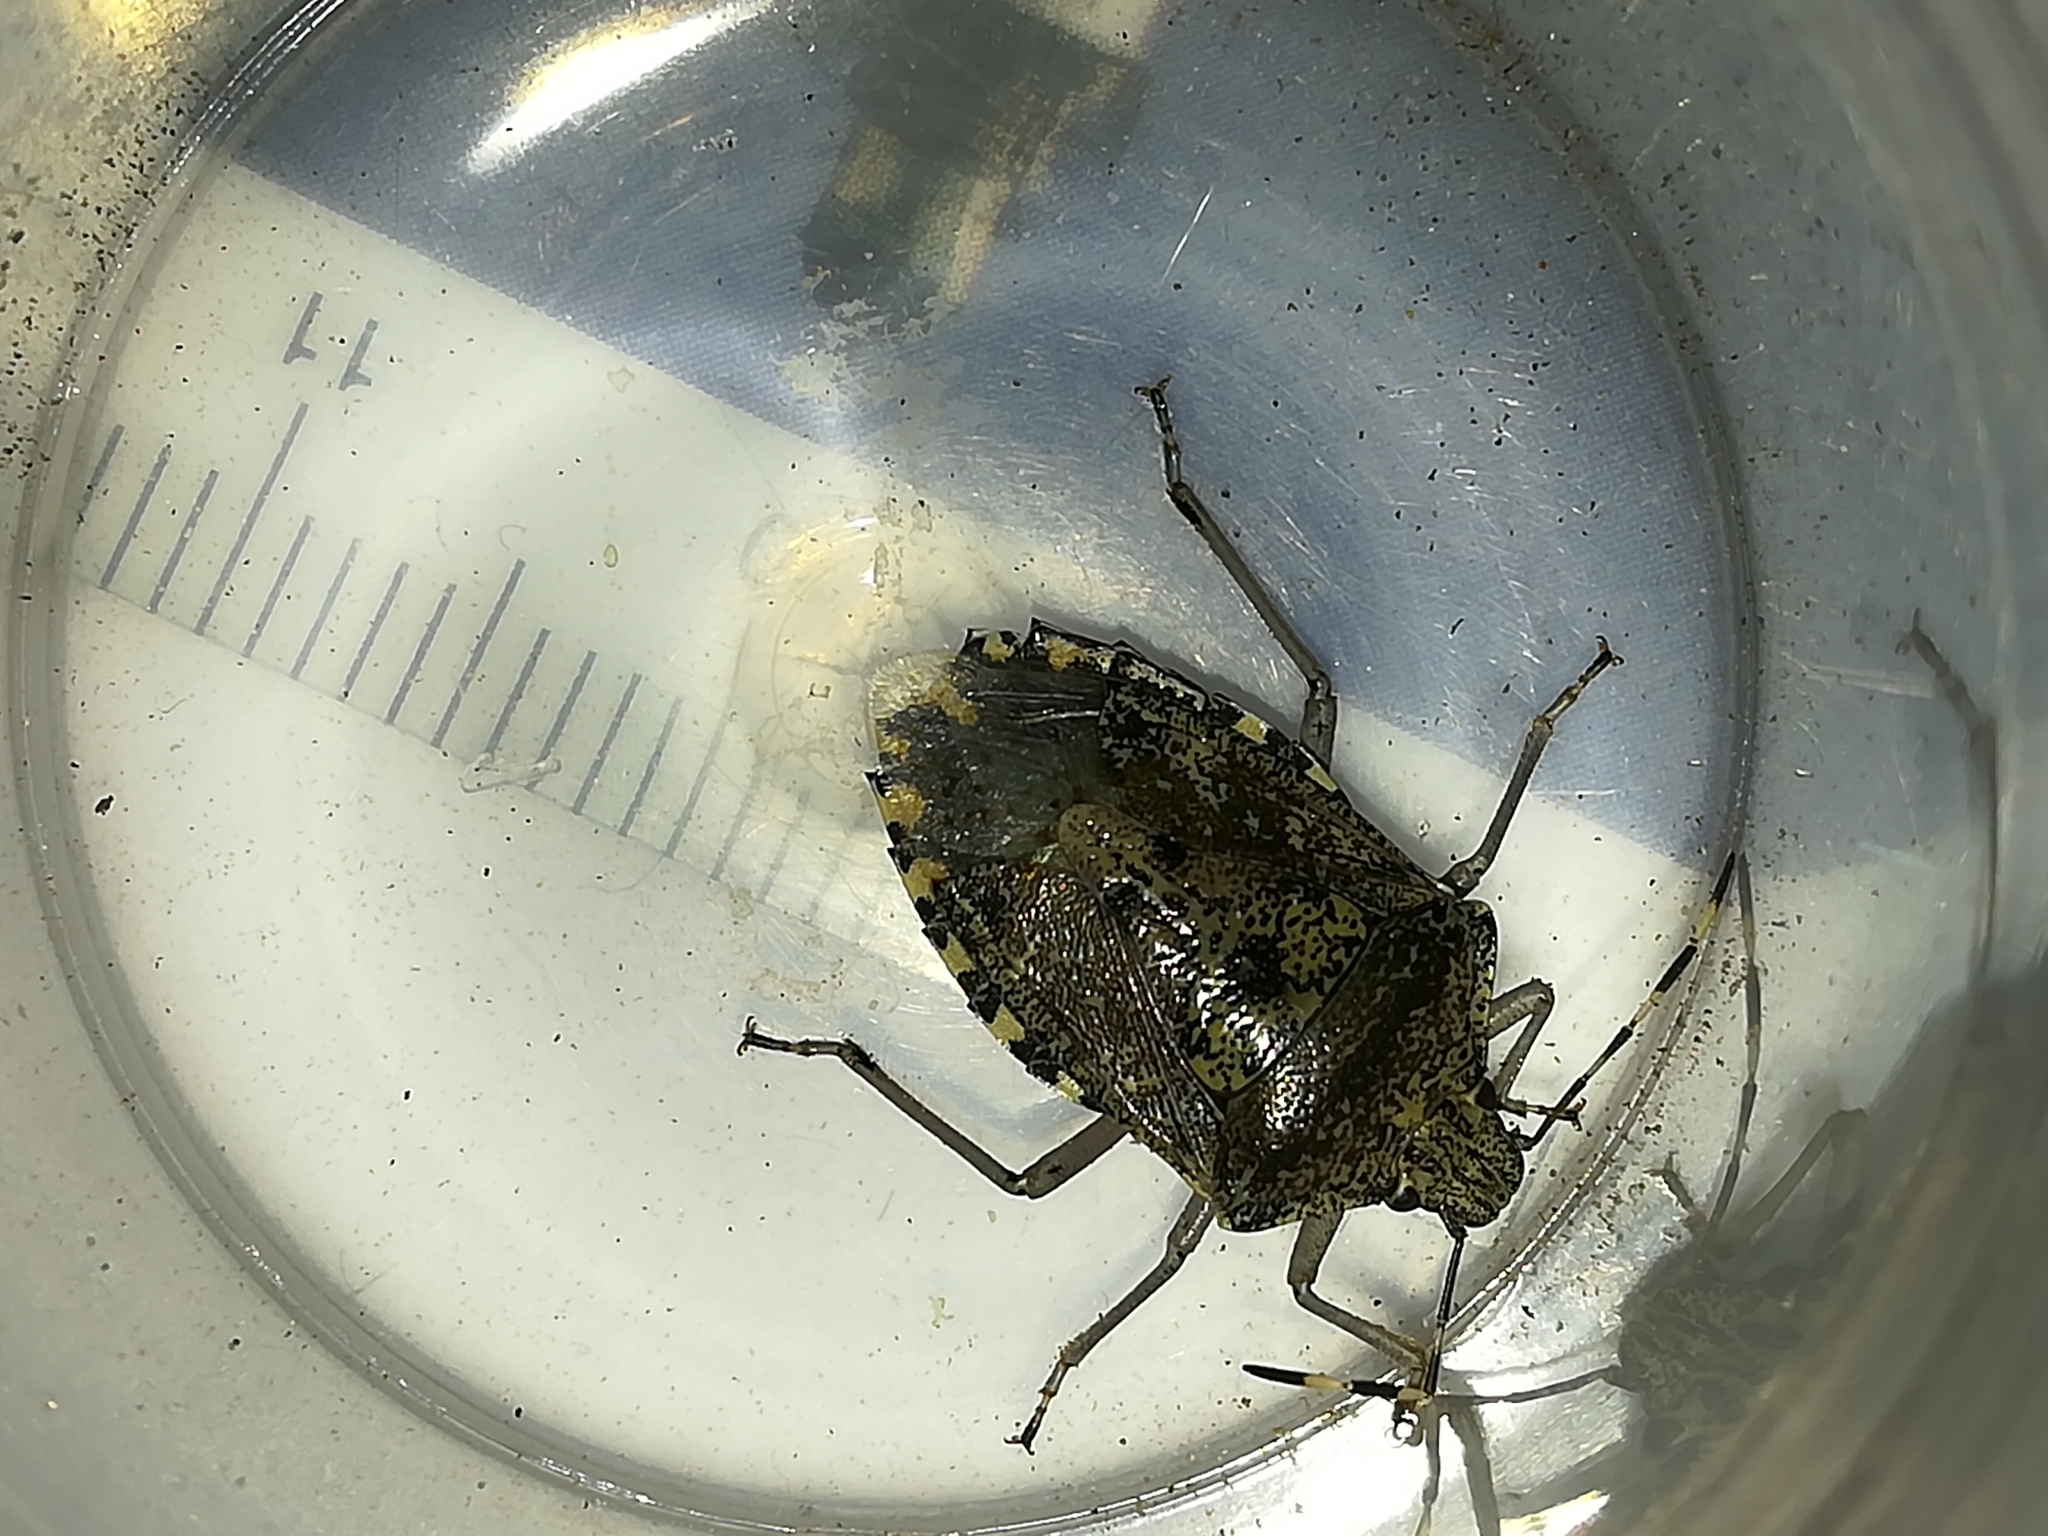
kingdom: Animalia
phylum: Arthropoda
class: Insecta
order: Hemiptera
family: Pentatomidae
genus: Rhaphigaster
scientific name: Rhaphigaster nebulosa
